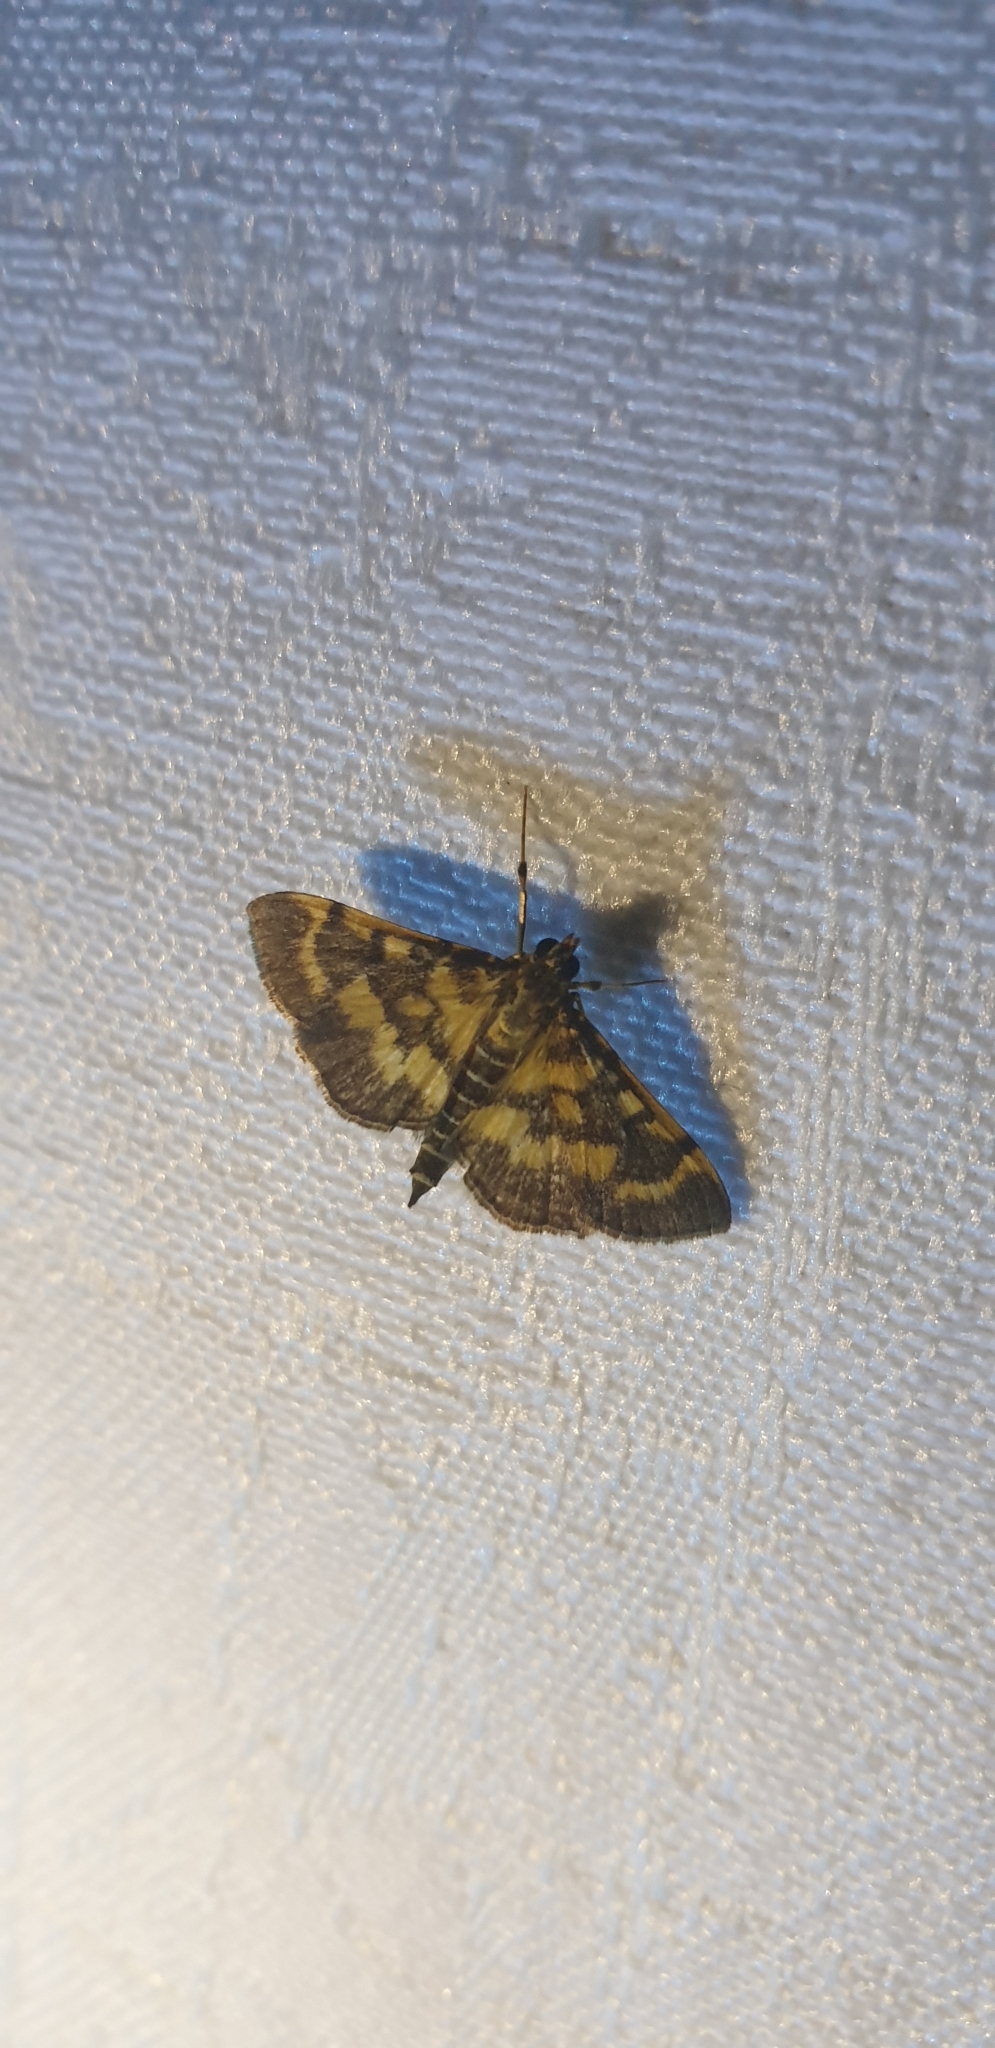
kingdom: Animalia
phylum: Arthropoda
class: Insecta
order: Lepidoptera
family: Crambidae
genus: Omiodes
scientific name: Omiodes diemenalis
